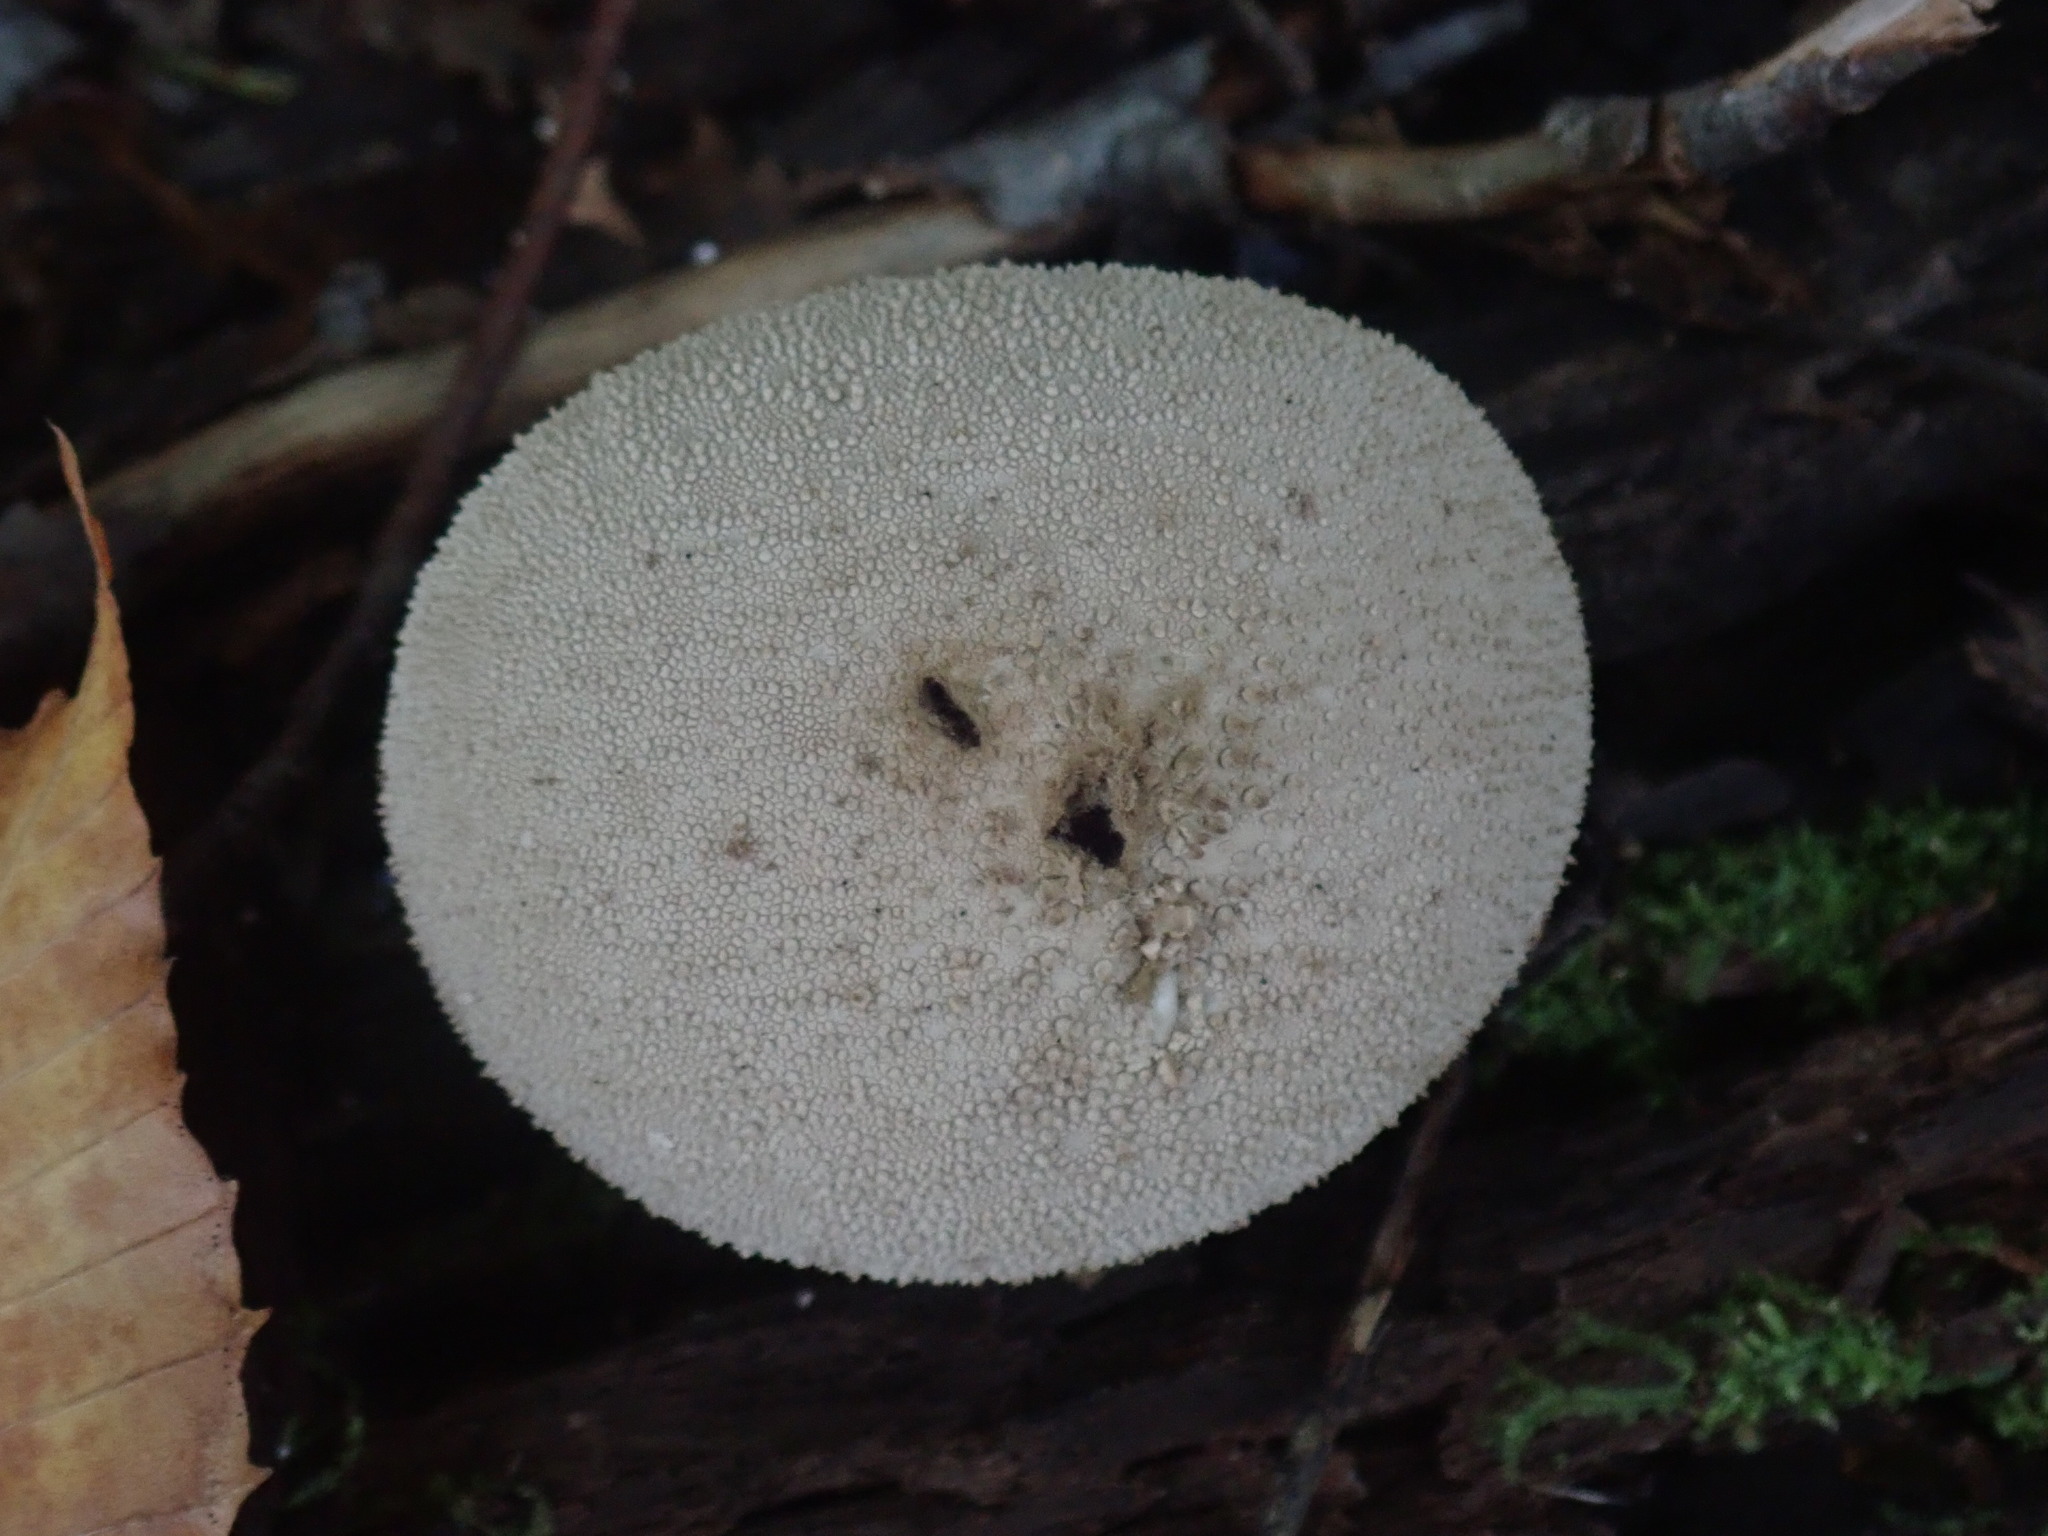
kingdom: Fungi
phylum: Basidiomycota
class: Agaricomycetes
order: Agaricales
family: Lycoperdaceae
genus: Lycoperdon
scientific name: Lycoperdon perlatum
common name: Common puffball
